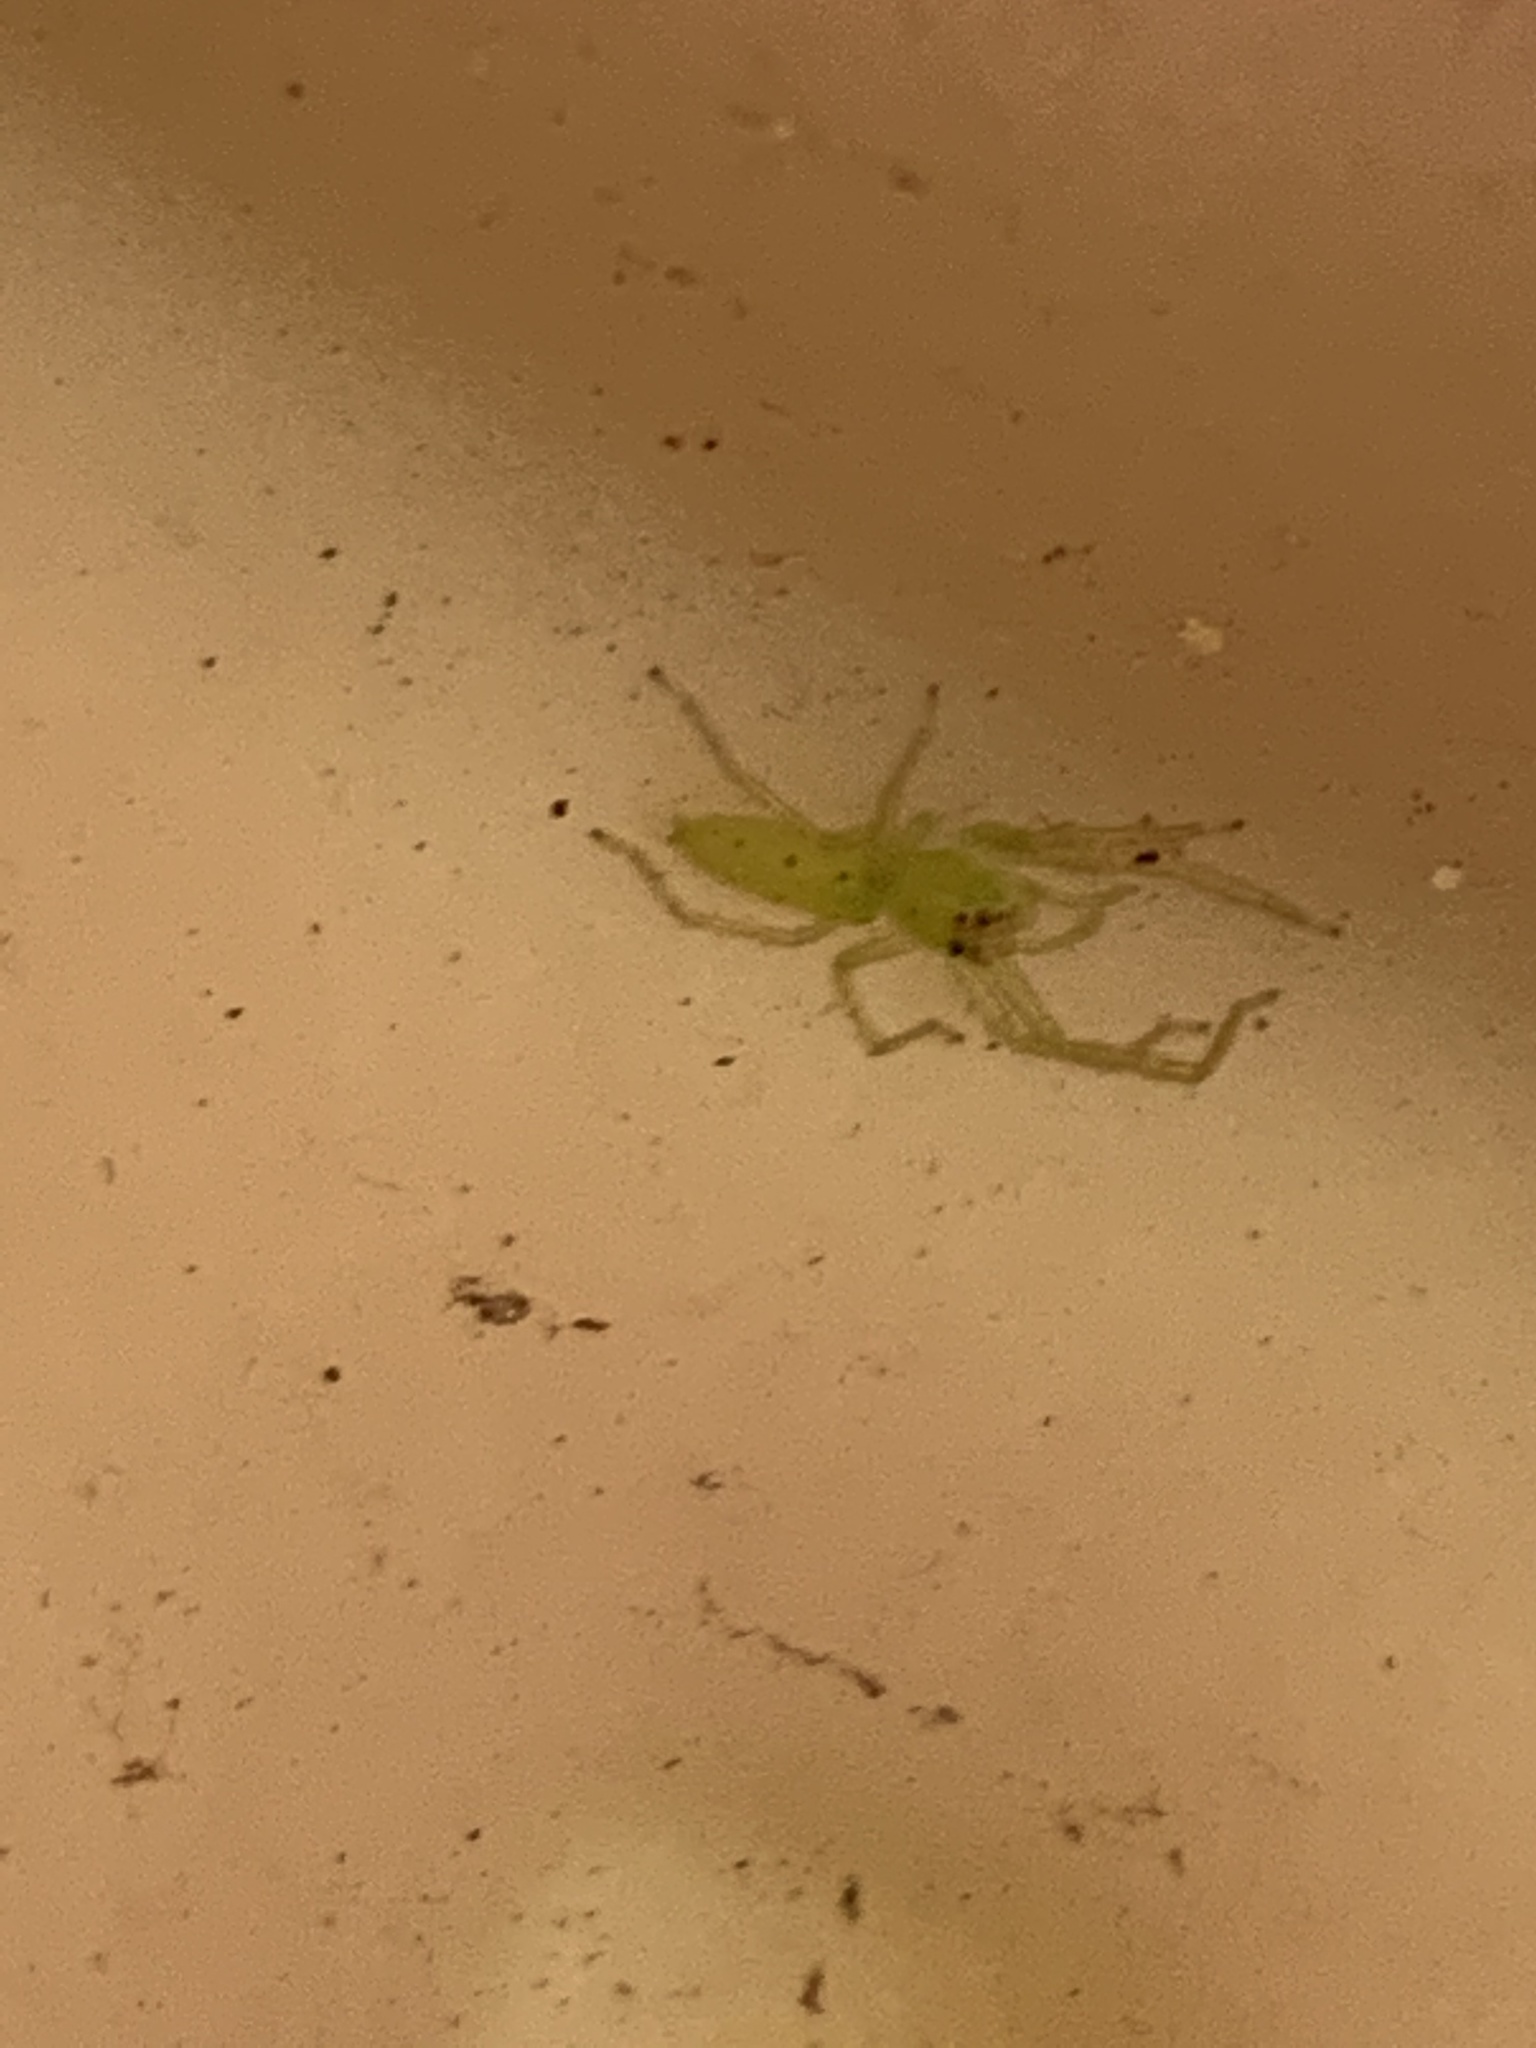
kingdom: Animalia
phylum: Arthropoda
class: Arachnida
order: Araneae
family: Salticidae
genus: Lyssomanes
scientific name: Lyssomanes viridis
